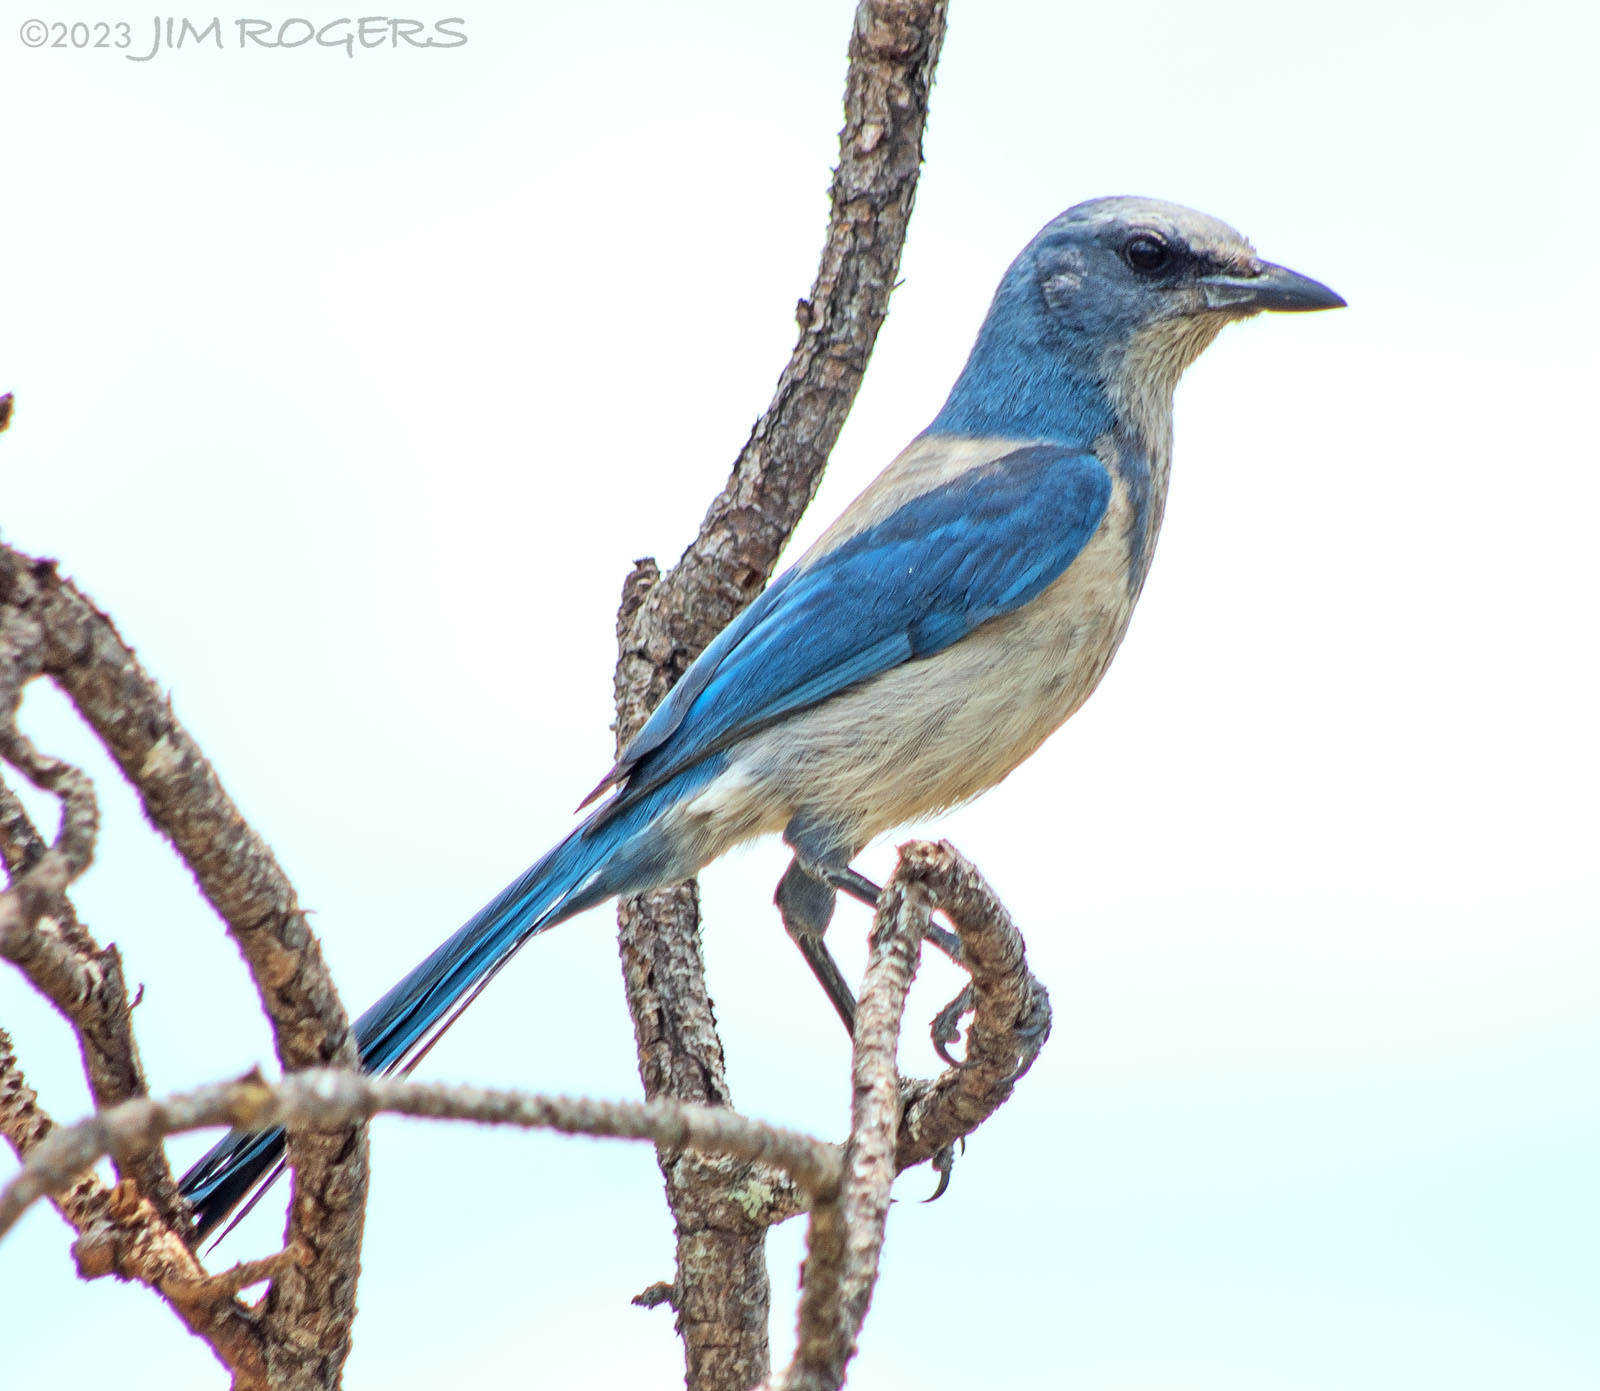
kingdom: Animalia
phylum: Chordata
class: Aves
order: Passeriformes
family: Corvidae
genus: Aphelocoma
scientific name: Aphelocoma coerulescens
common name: Florida scrub jay
